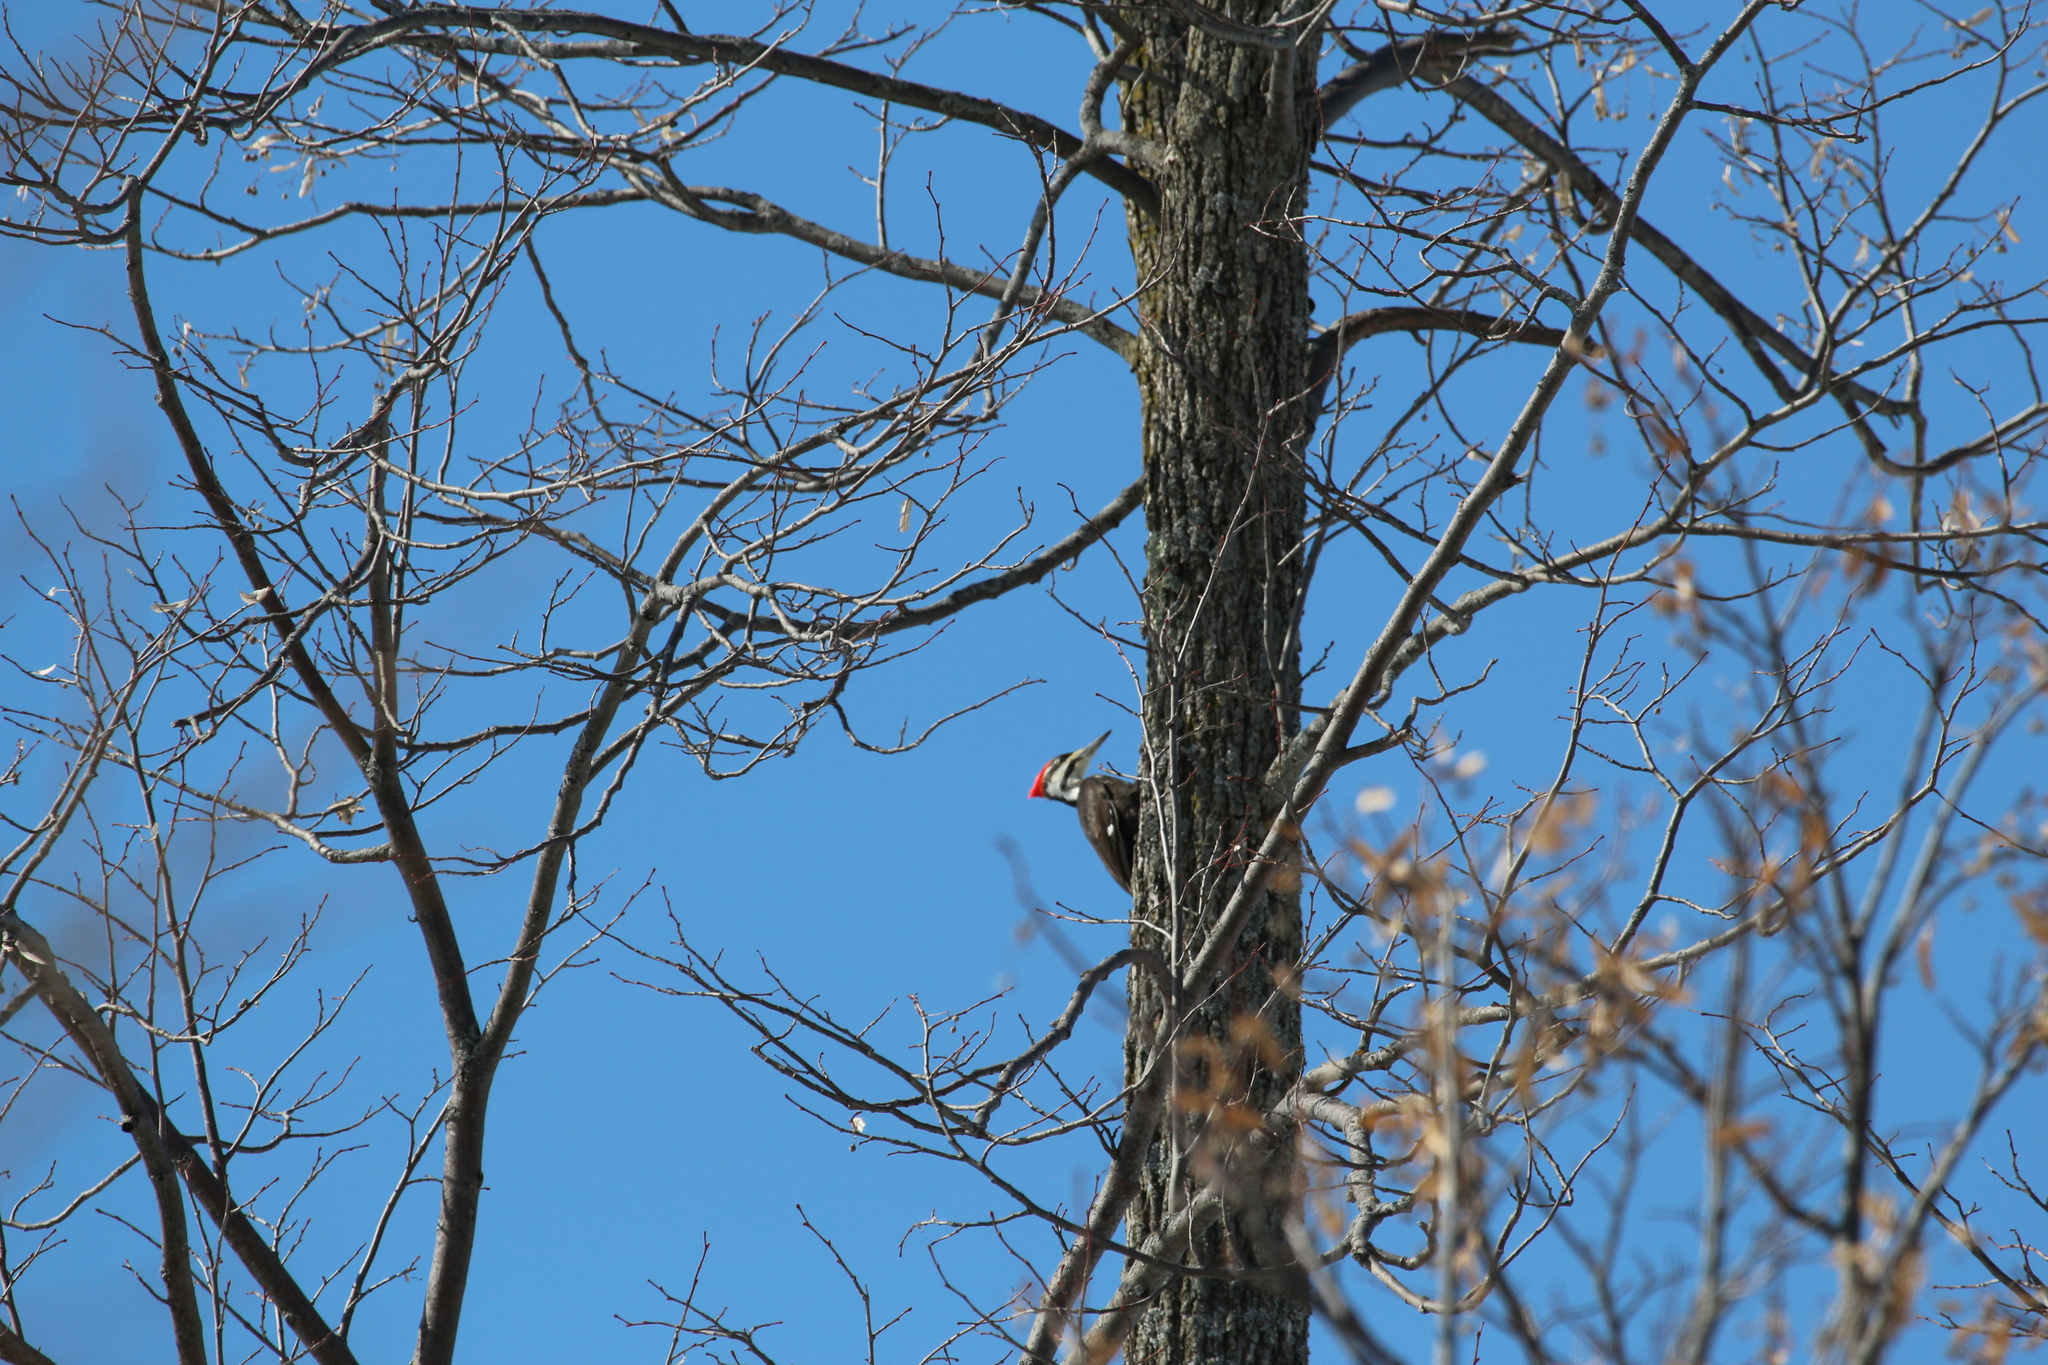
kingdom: Animalia
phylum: Chordata
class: Aves
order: Piciformes
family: Picidae
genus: Dryocopus
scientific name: Dryocopus pileatus
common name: Pileated woodpecker
